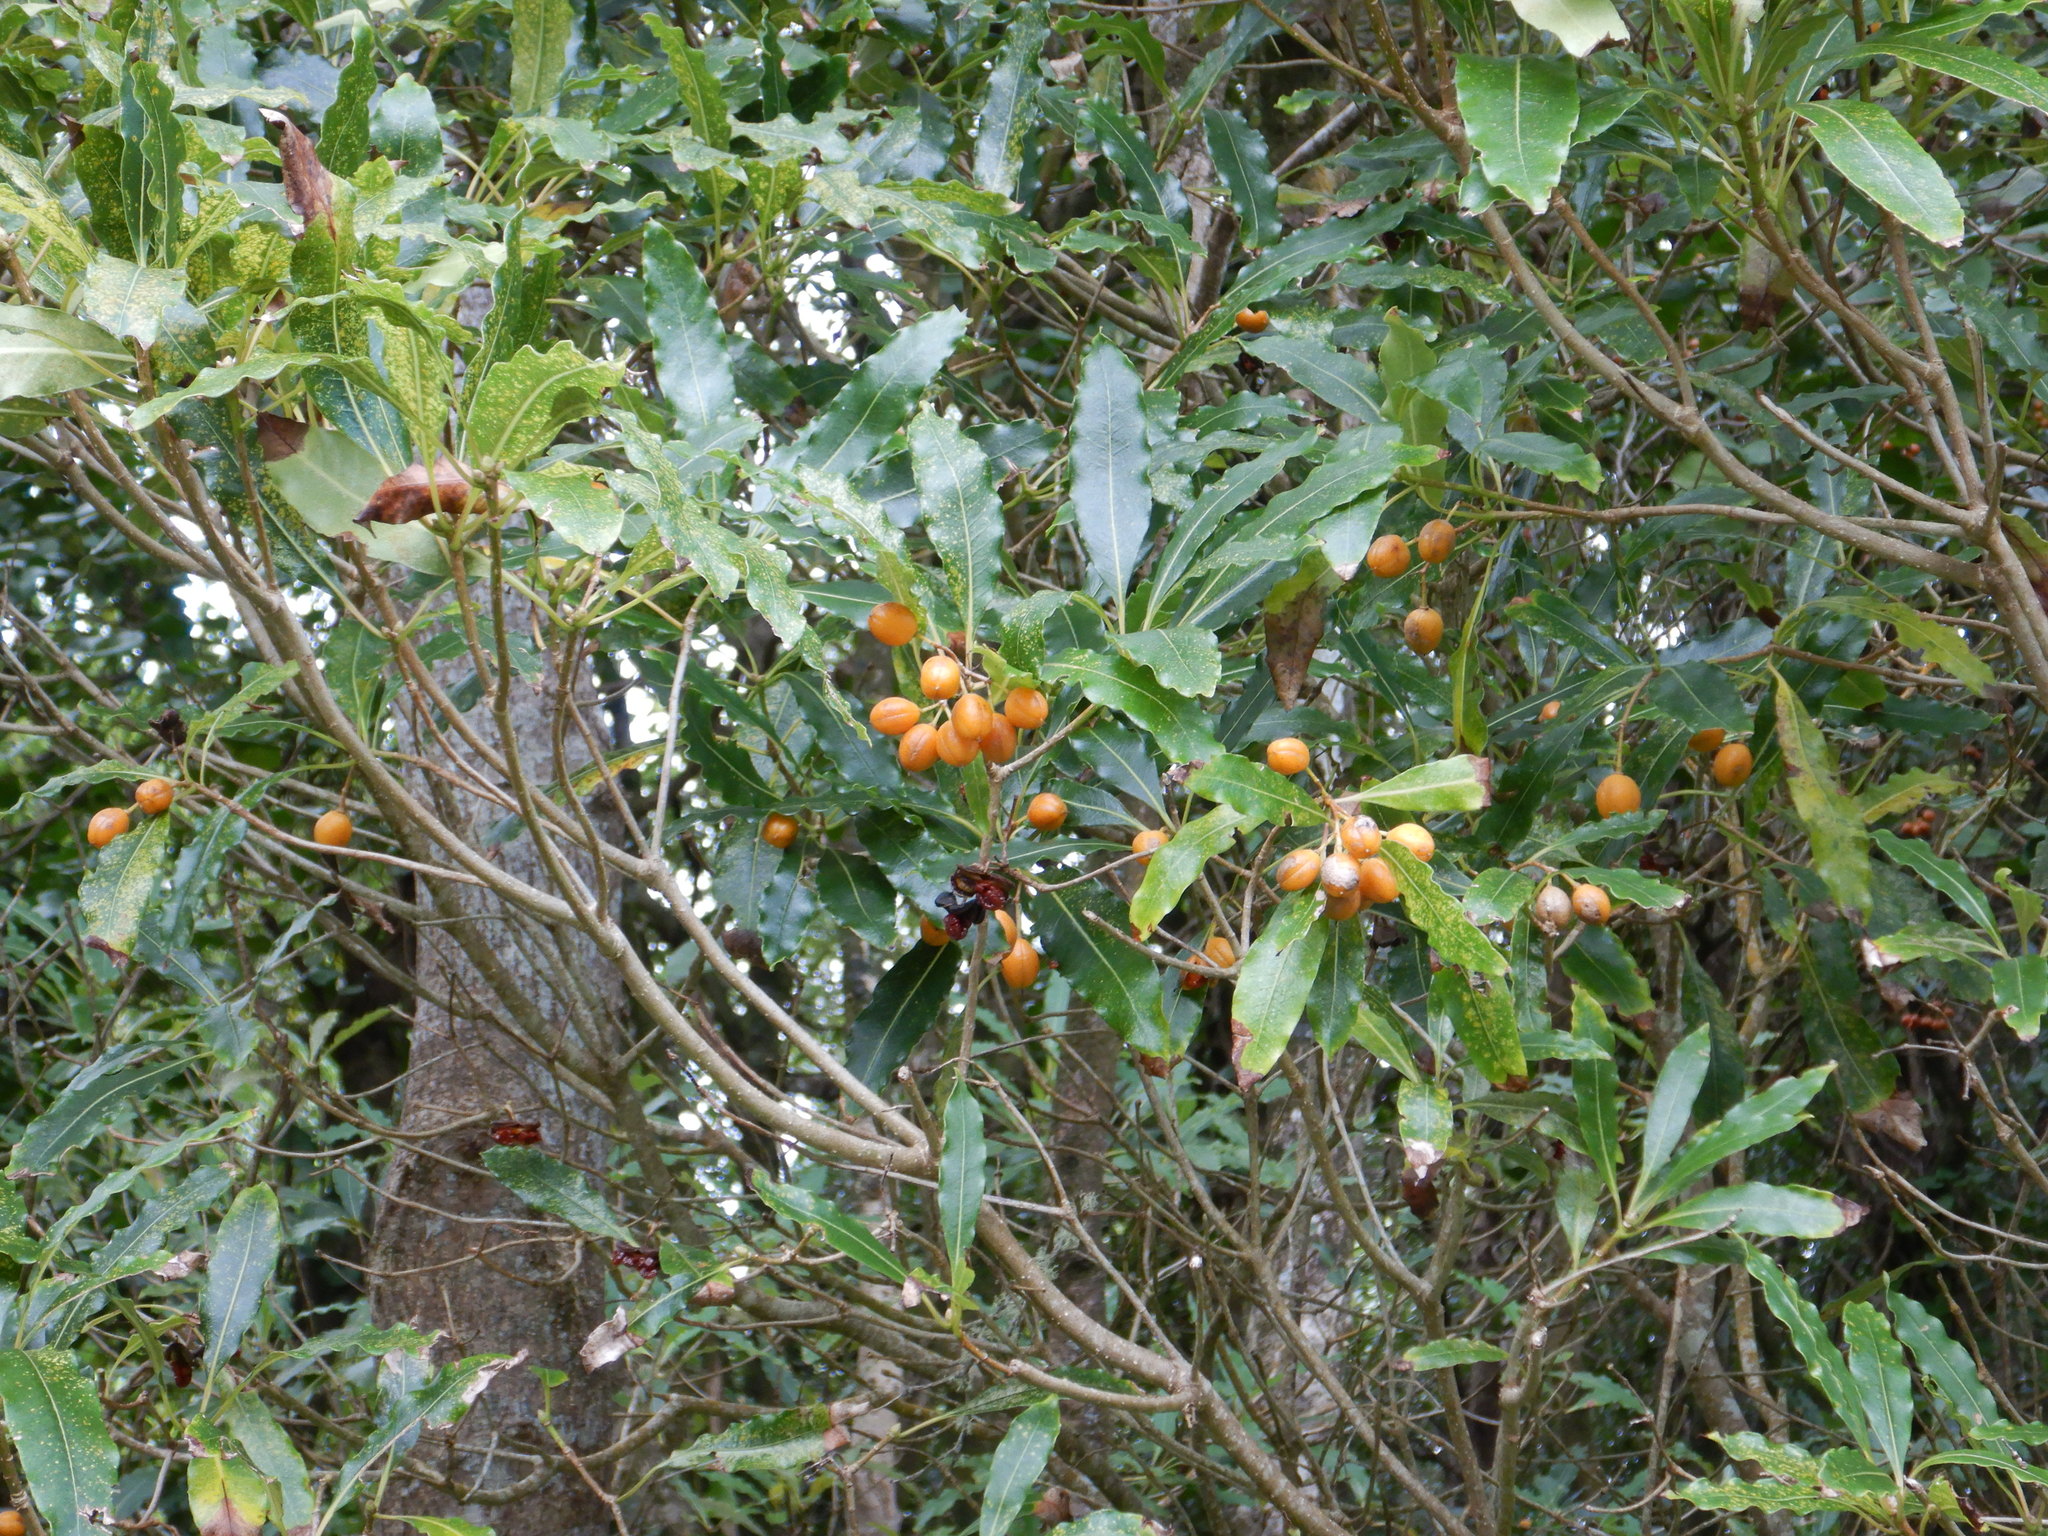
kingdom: Plantae
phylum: Tracheophyta
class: Magnoliopsida
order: Apiales
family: Pittosporaceae
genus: Pittosporum
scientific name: Pittosporum undulatum
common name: Australian cheesewood
